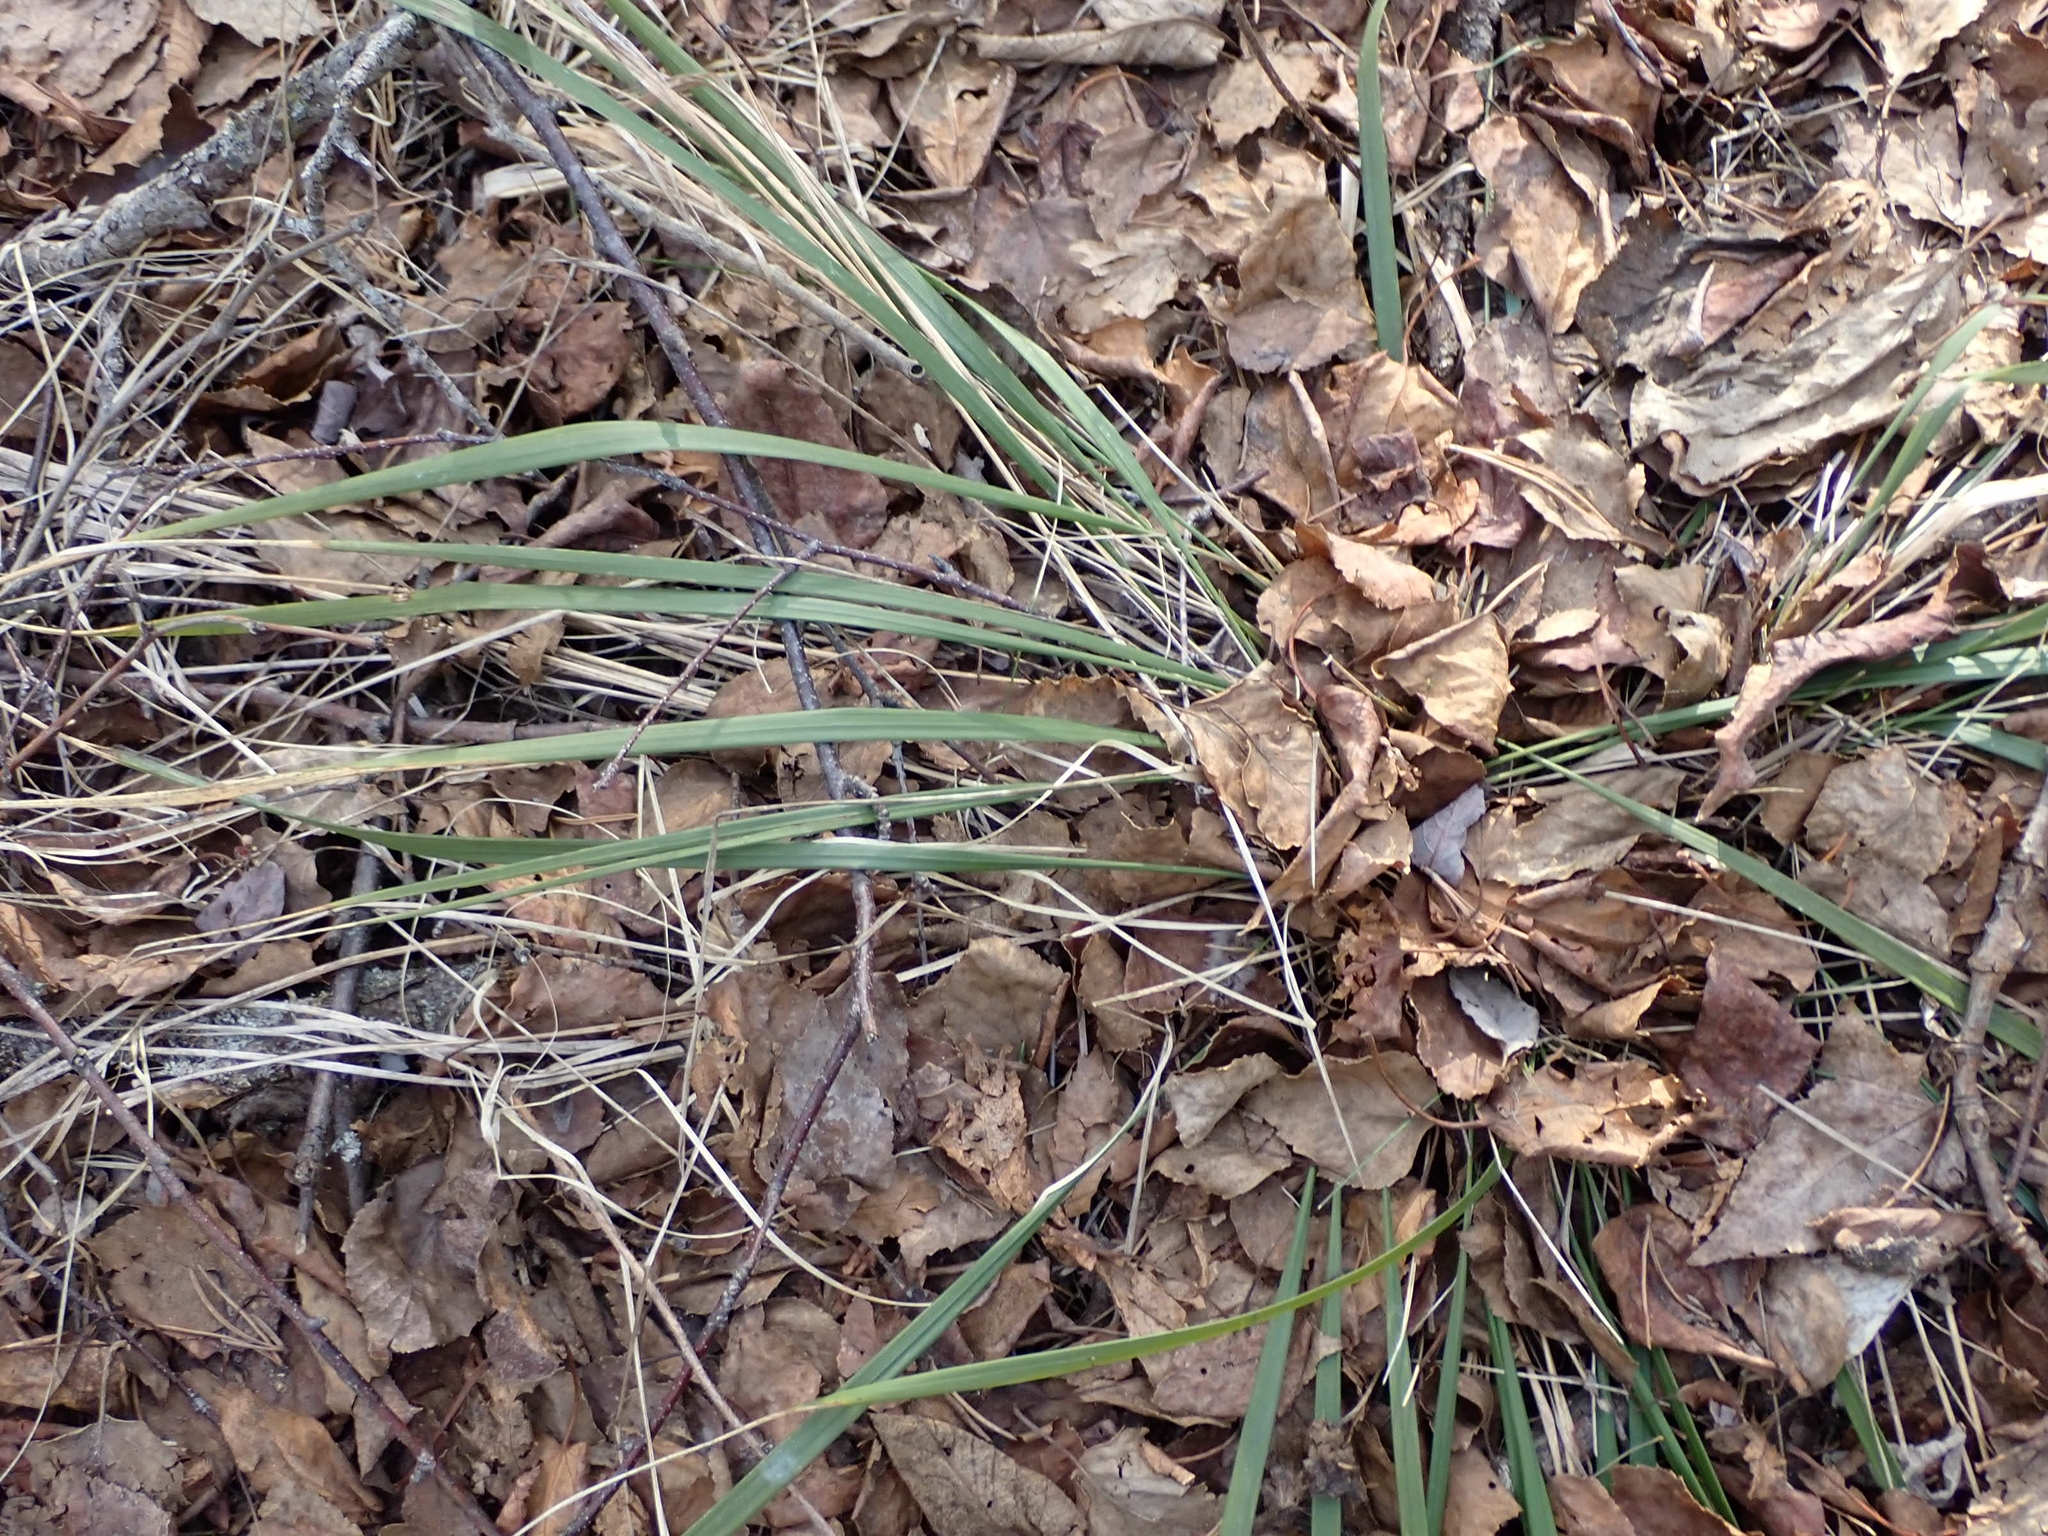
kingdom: Plantae
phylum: Tracheophyta
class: Liliopsida
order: Poales
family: Poaceae
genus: Oryzopsis
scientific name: Oryzopsis asperifolia
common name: Rough-leaved mountain rice
